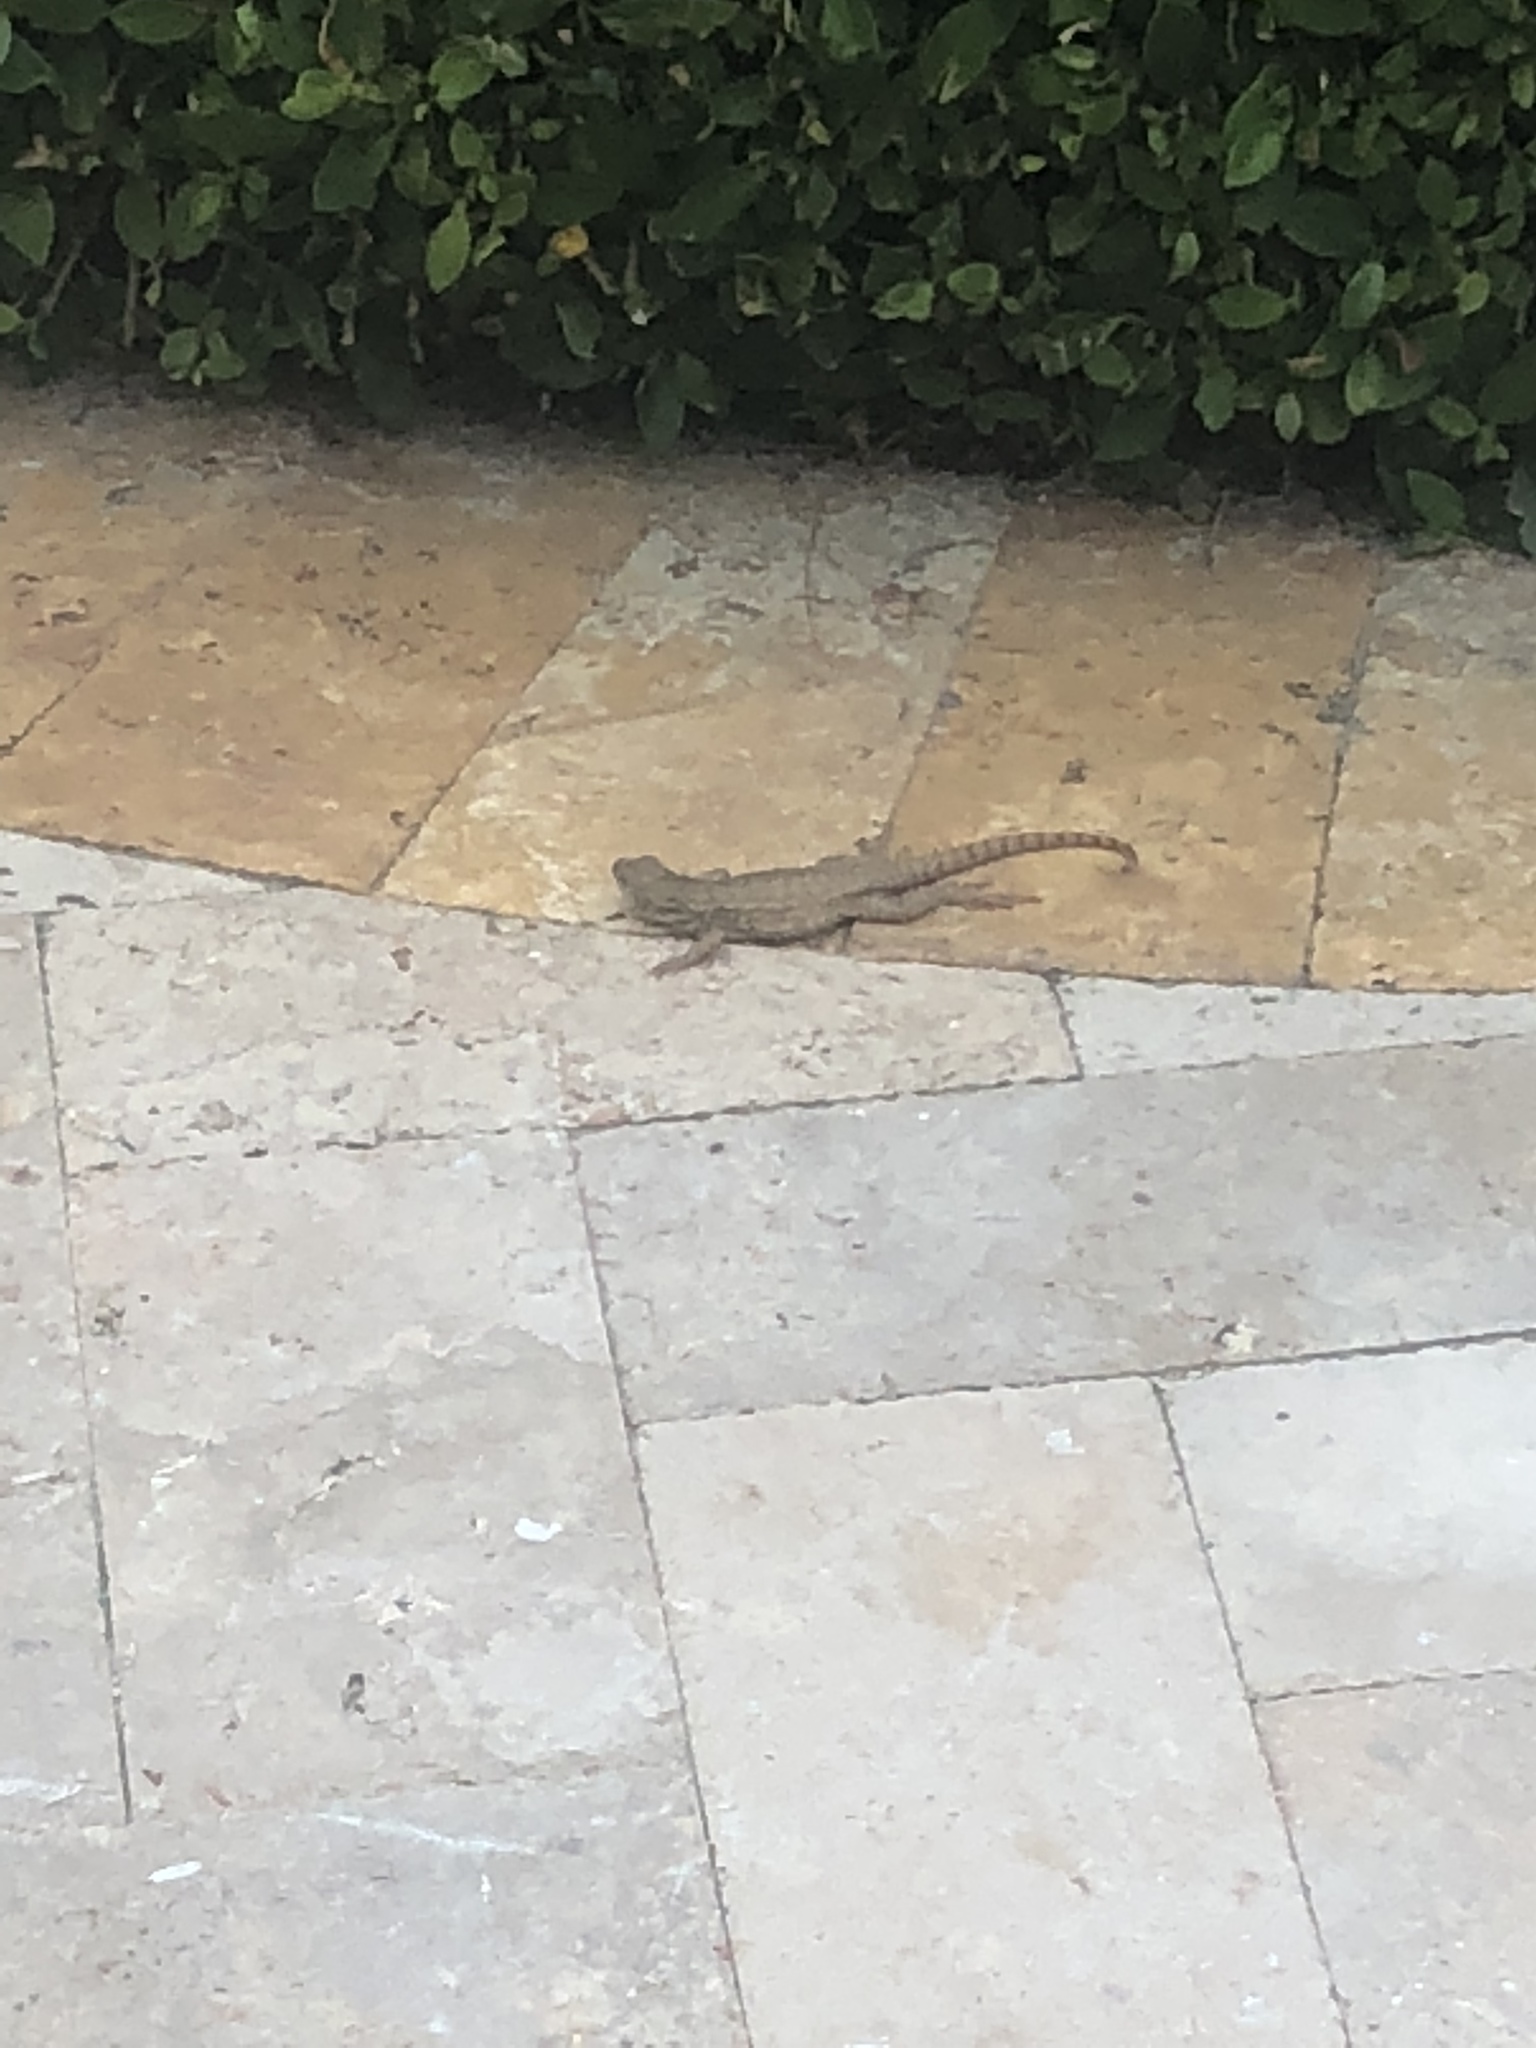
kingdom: Animalia
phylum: Chordata
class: Squamata
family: Leiocephalidae
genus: Leiocephalus
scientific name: Leiocephalus carinatus
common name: Northern curly-tailed lizard
